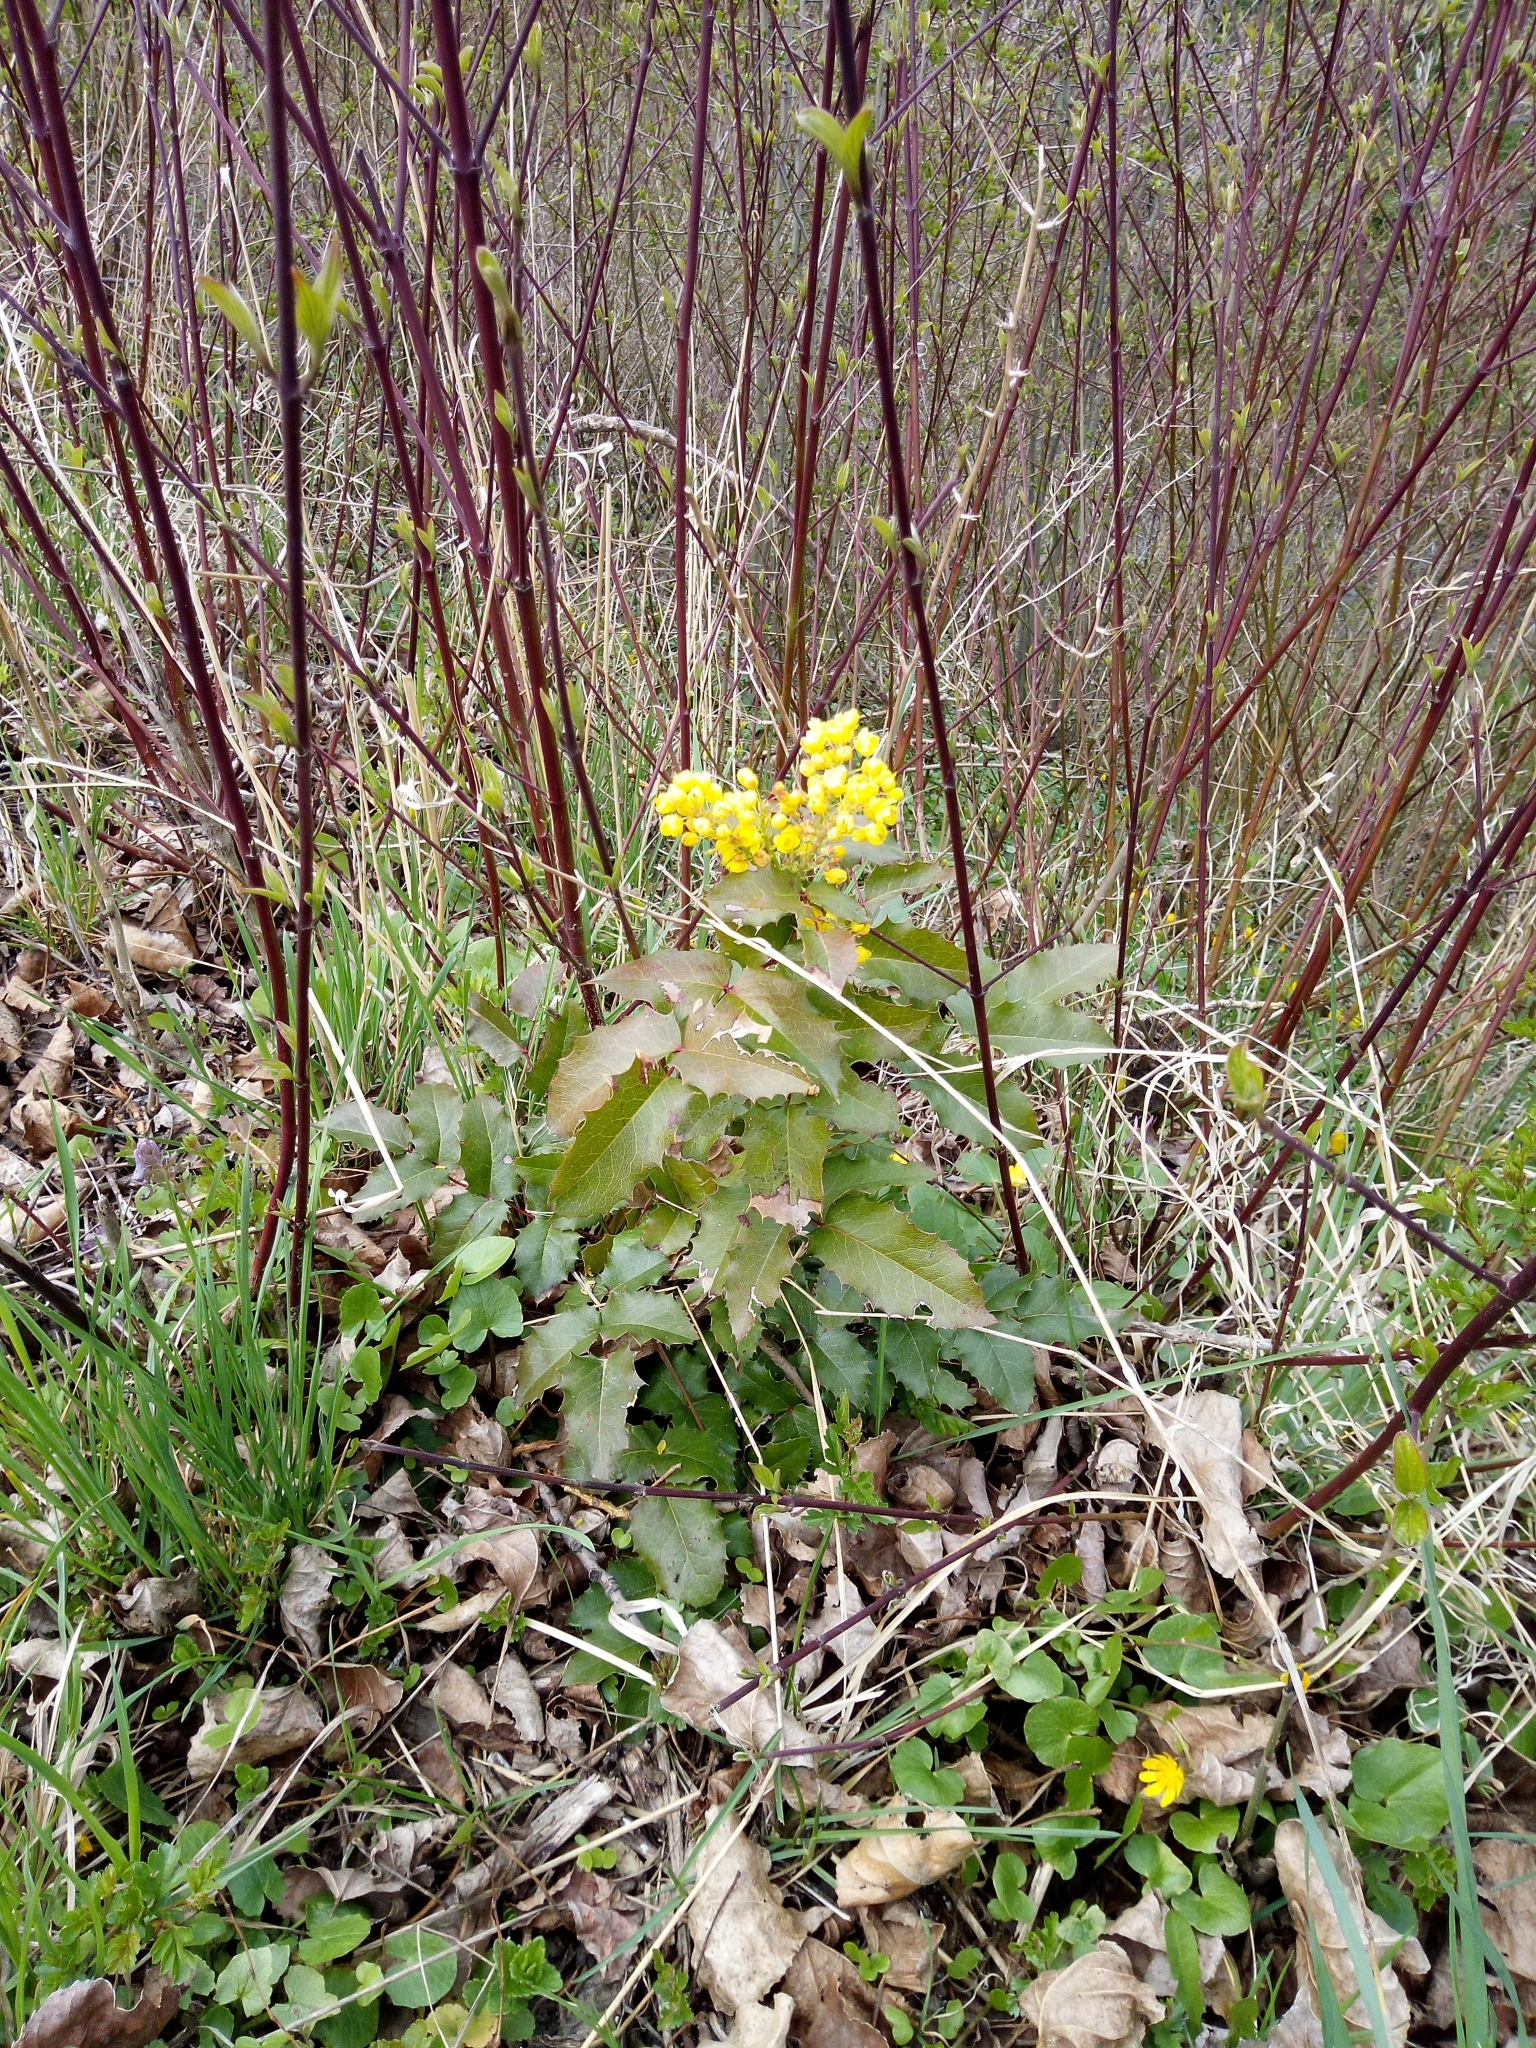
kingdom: Plantae
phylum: Tracheophyta
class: Magnoliopsida
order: Ranunculales
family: Berberidaceae
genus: Mahonia
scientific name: Mahonia aquifolium
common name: Oregon-grape
